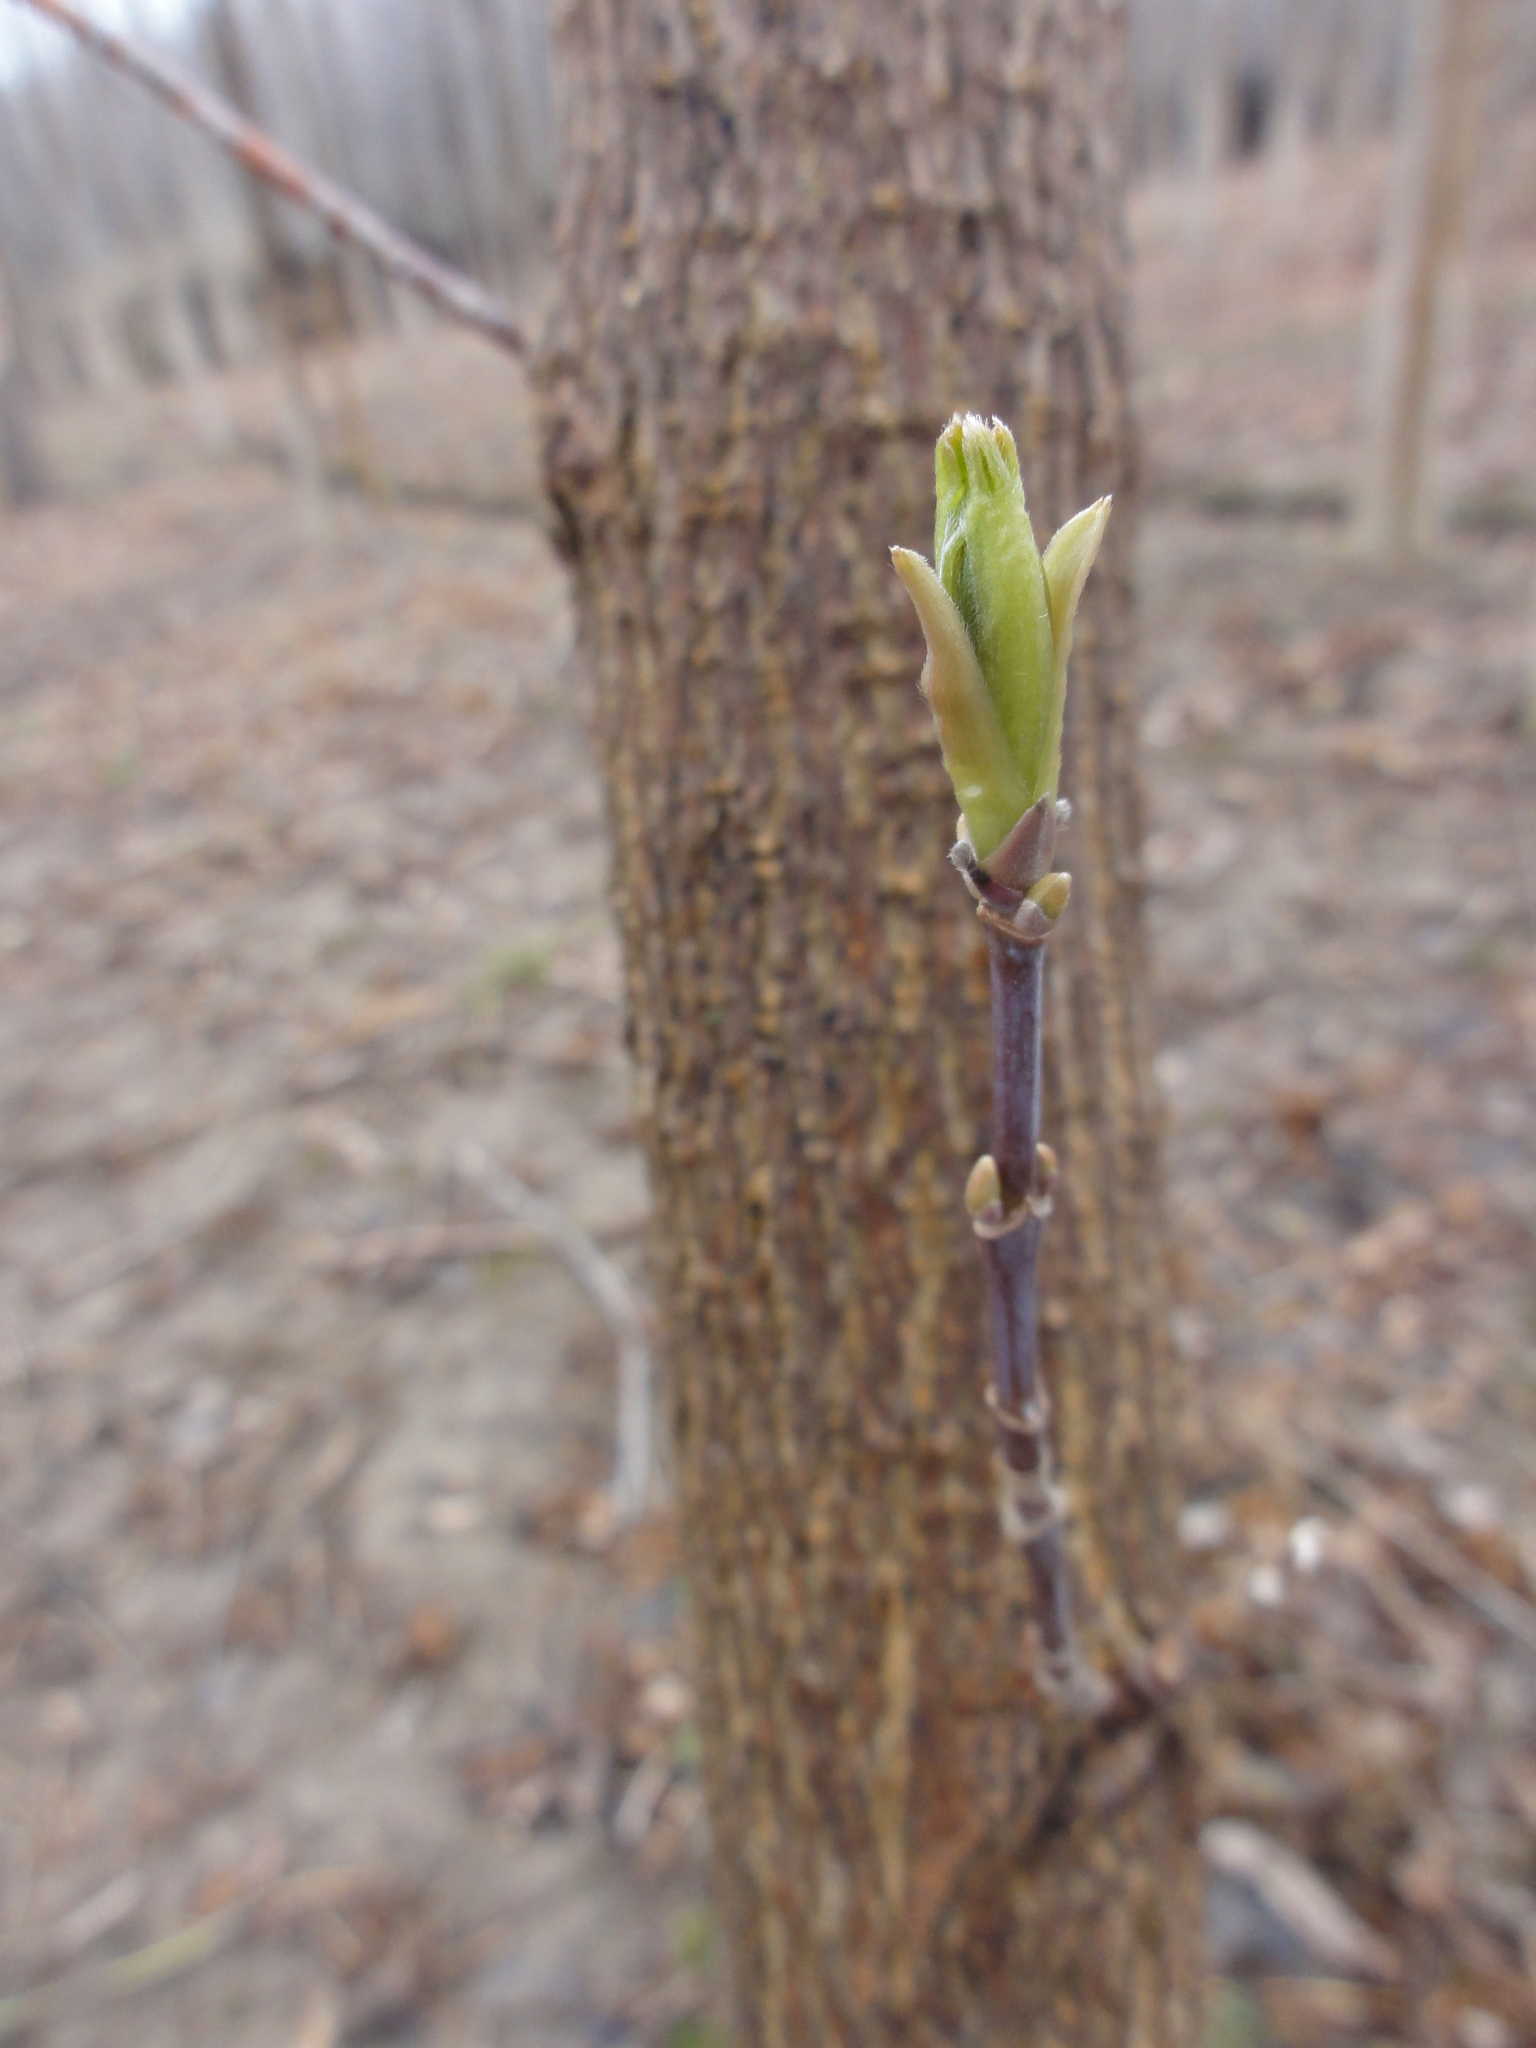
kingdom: Plantae
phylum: Tracheophyta
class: Magnoliopsida
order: Sapindales
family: Sapindaceae
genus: Acer
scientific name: Acer negundo
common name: Ashleaf maple
